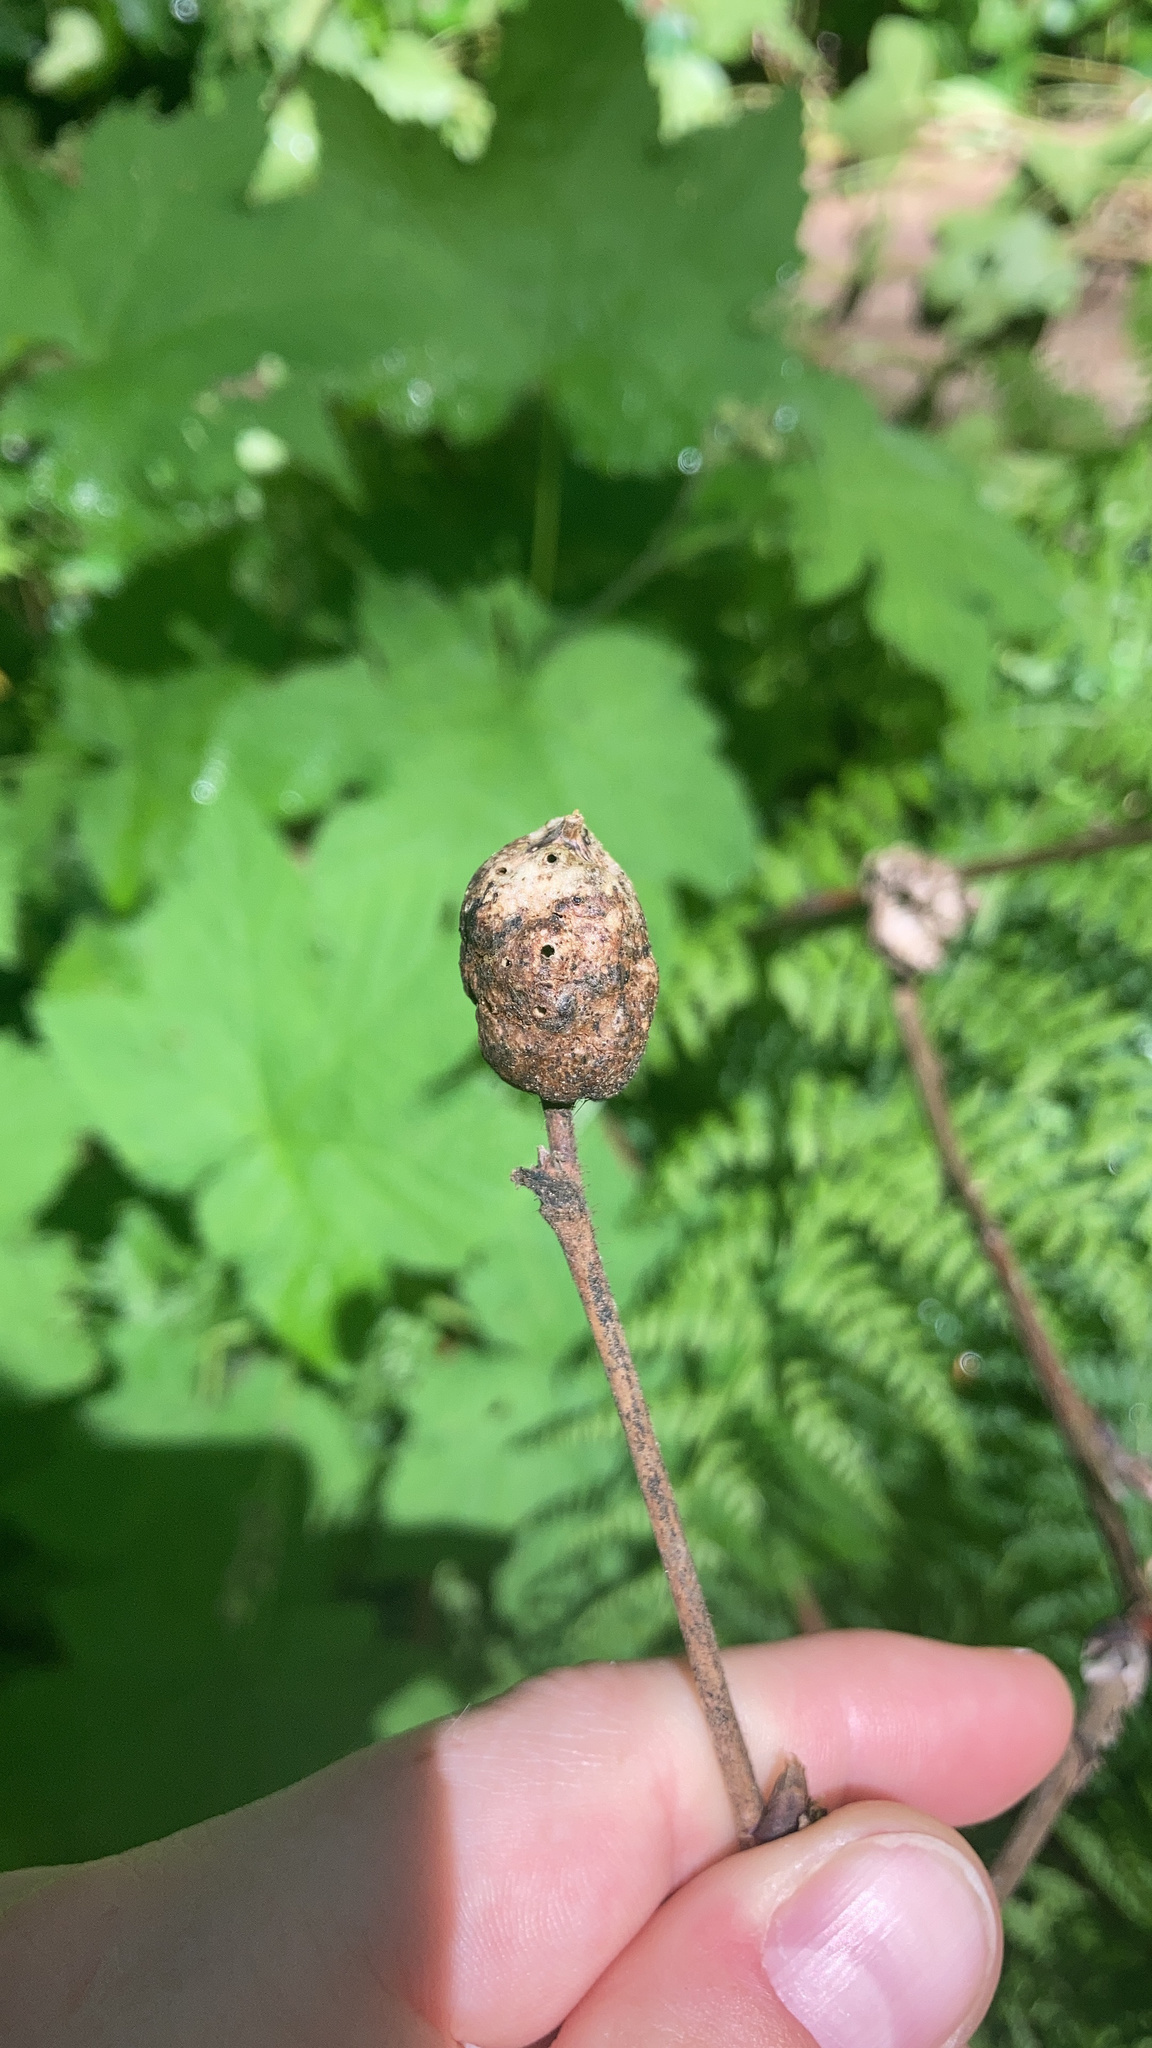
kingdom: Animalia
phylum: Arthropoda
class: Insecta
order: Hymenoptera
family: Cynipidae
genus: Diastrophus
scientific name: Diastrophus
